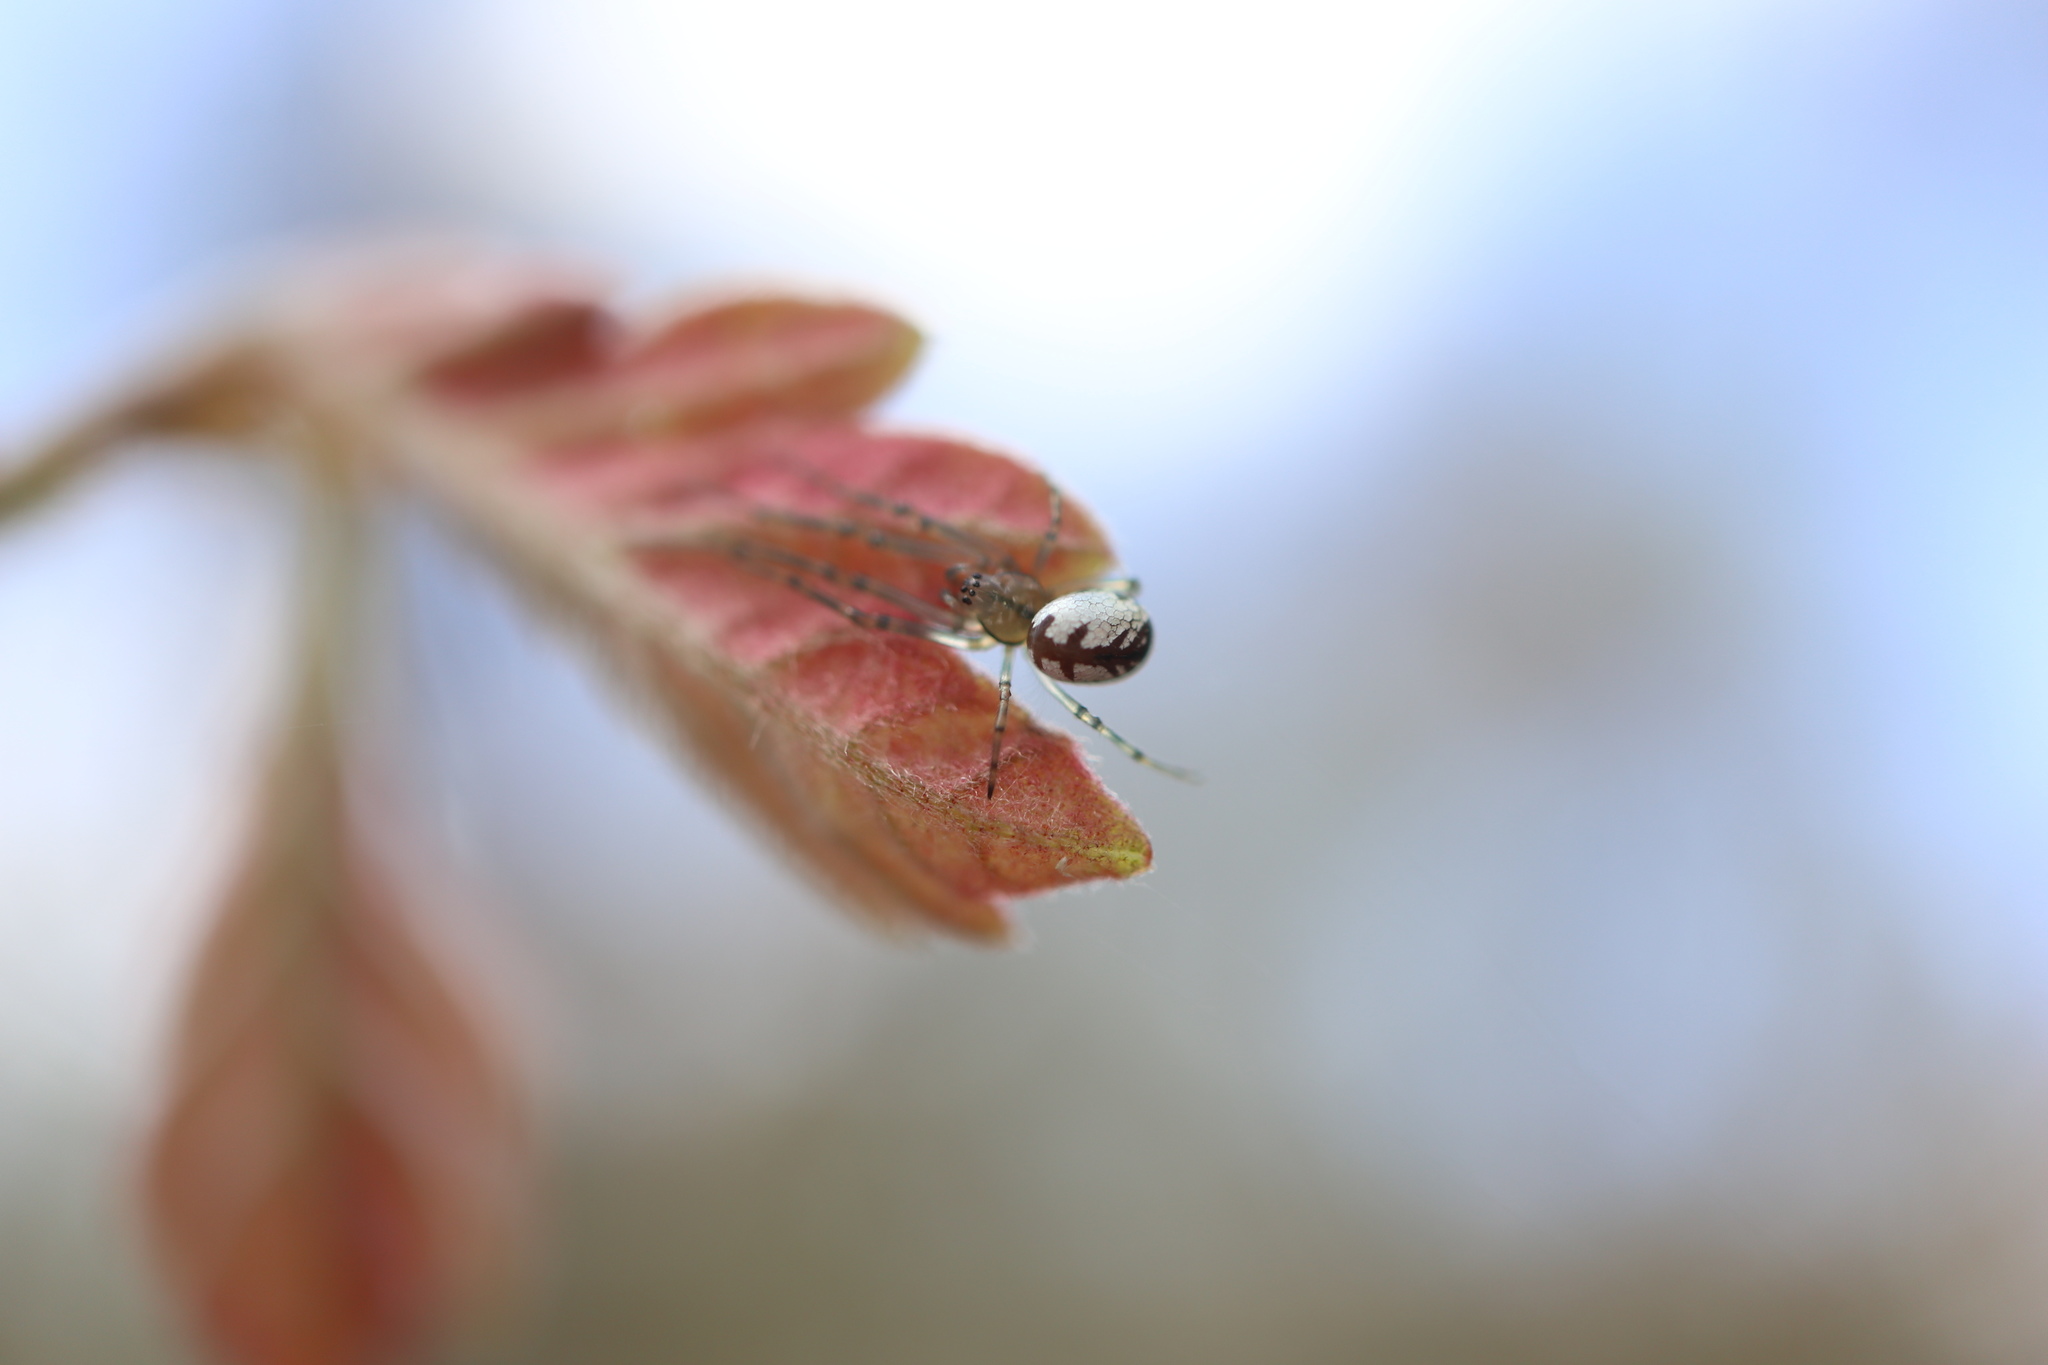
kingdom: Animalia
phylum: Arthropoda
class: Arachnida
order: Araneae
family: Tetragnathidae
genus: Leucauge
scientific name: Leucauge venusta
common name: Longjawed orb weavers
